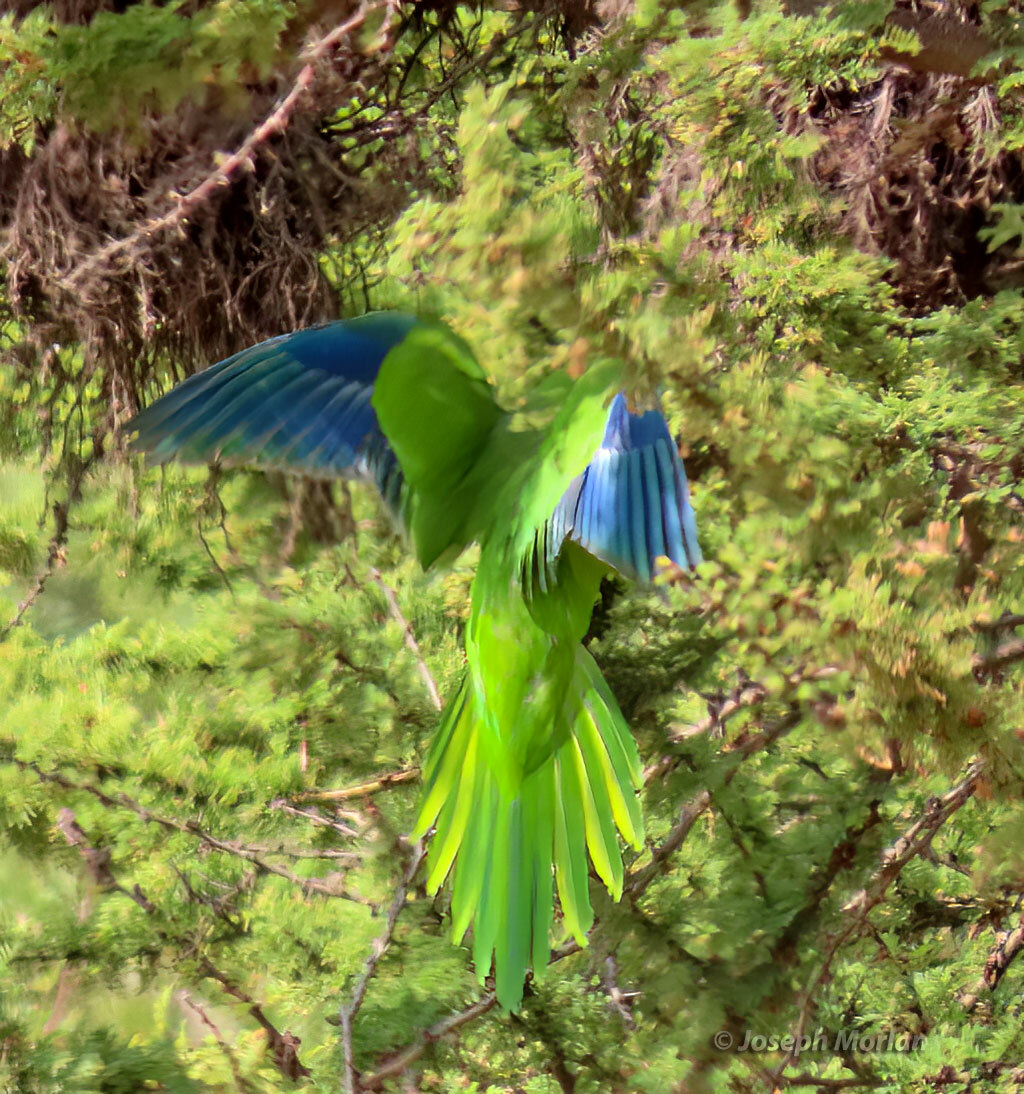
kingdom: Animalia
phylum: Chordata
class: Aves
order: Psittaciformes
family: Psittacidae
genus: Myiopsitta
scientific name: Myiopsitta monachus
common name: Monk parakeet
